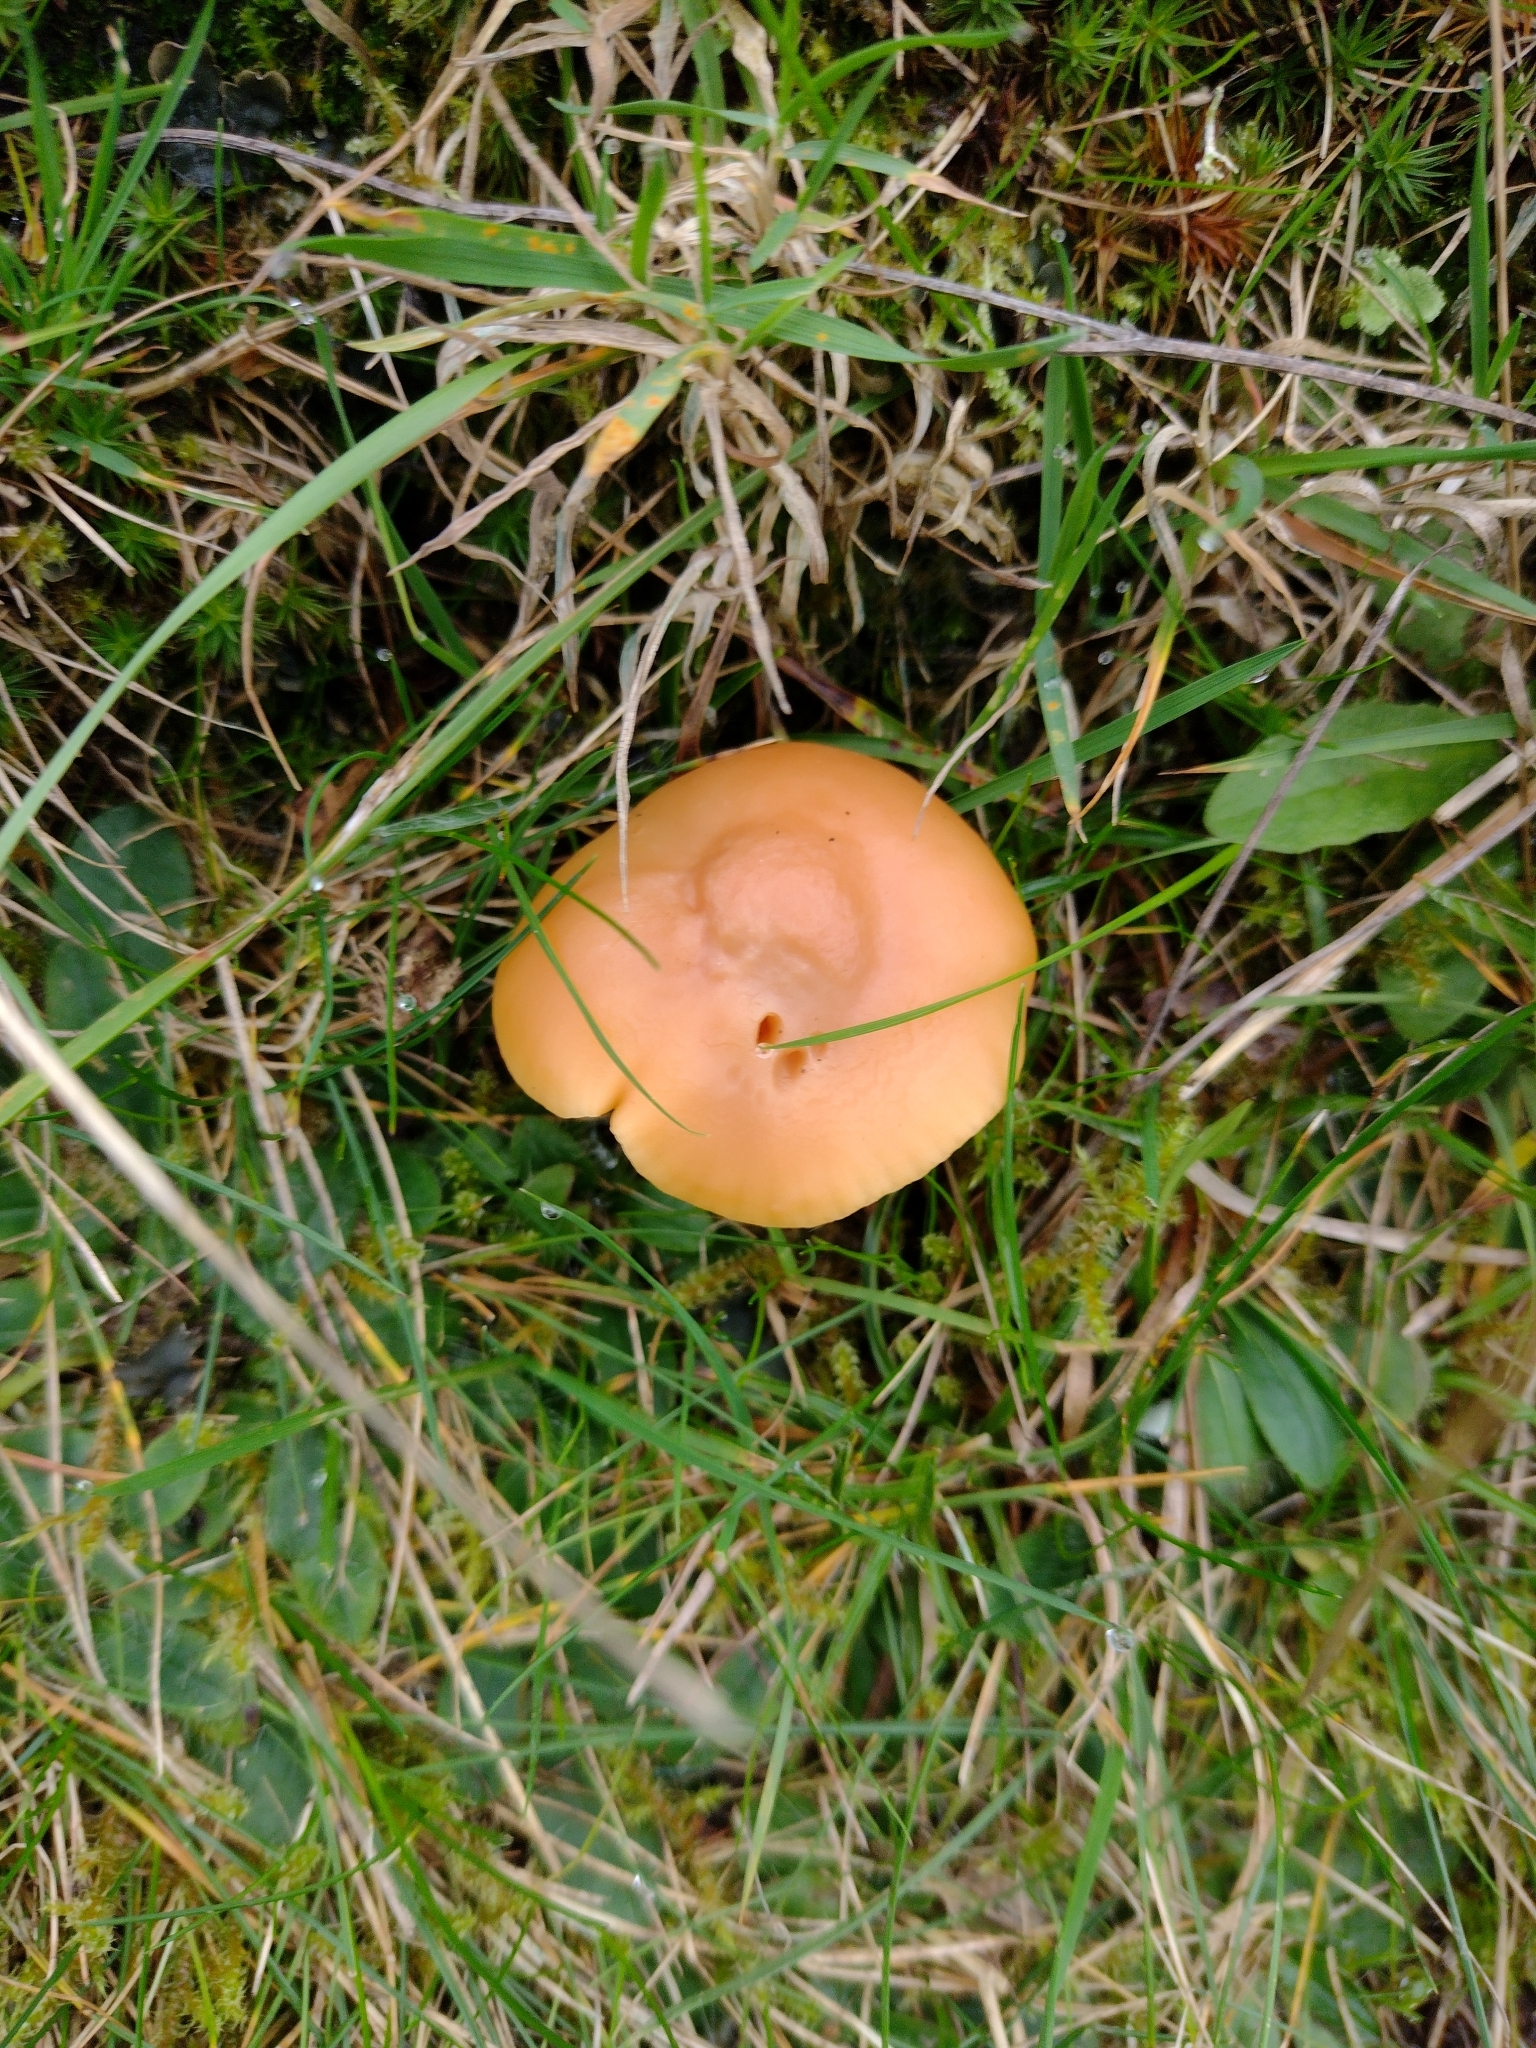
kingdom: Fungi
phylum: Basidiomycota
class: Agaricomycetes
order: Agaricales
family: Hygrophoraceae
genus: Cuphophyllus
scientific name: Cuphophyllus pratensis
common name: Meadow waxcap
